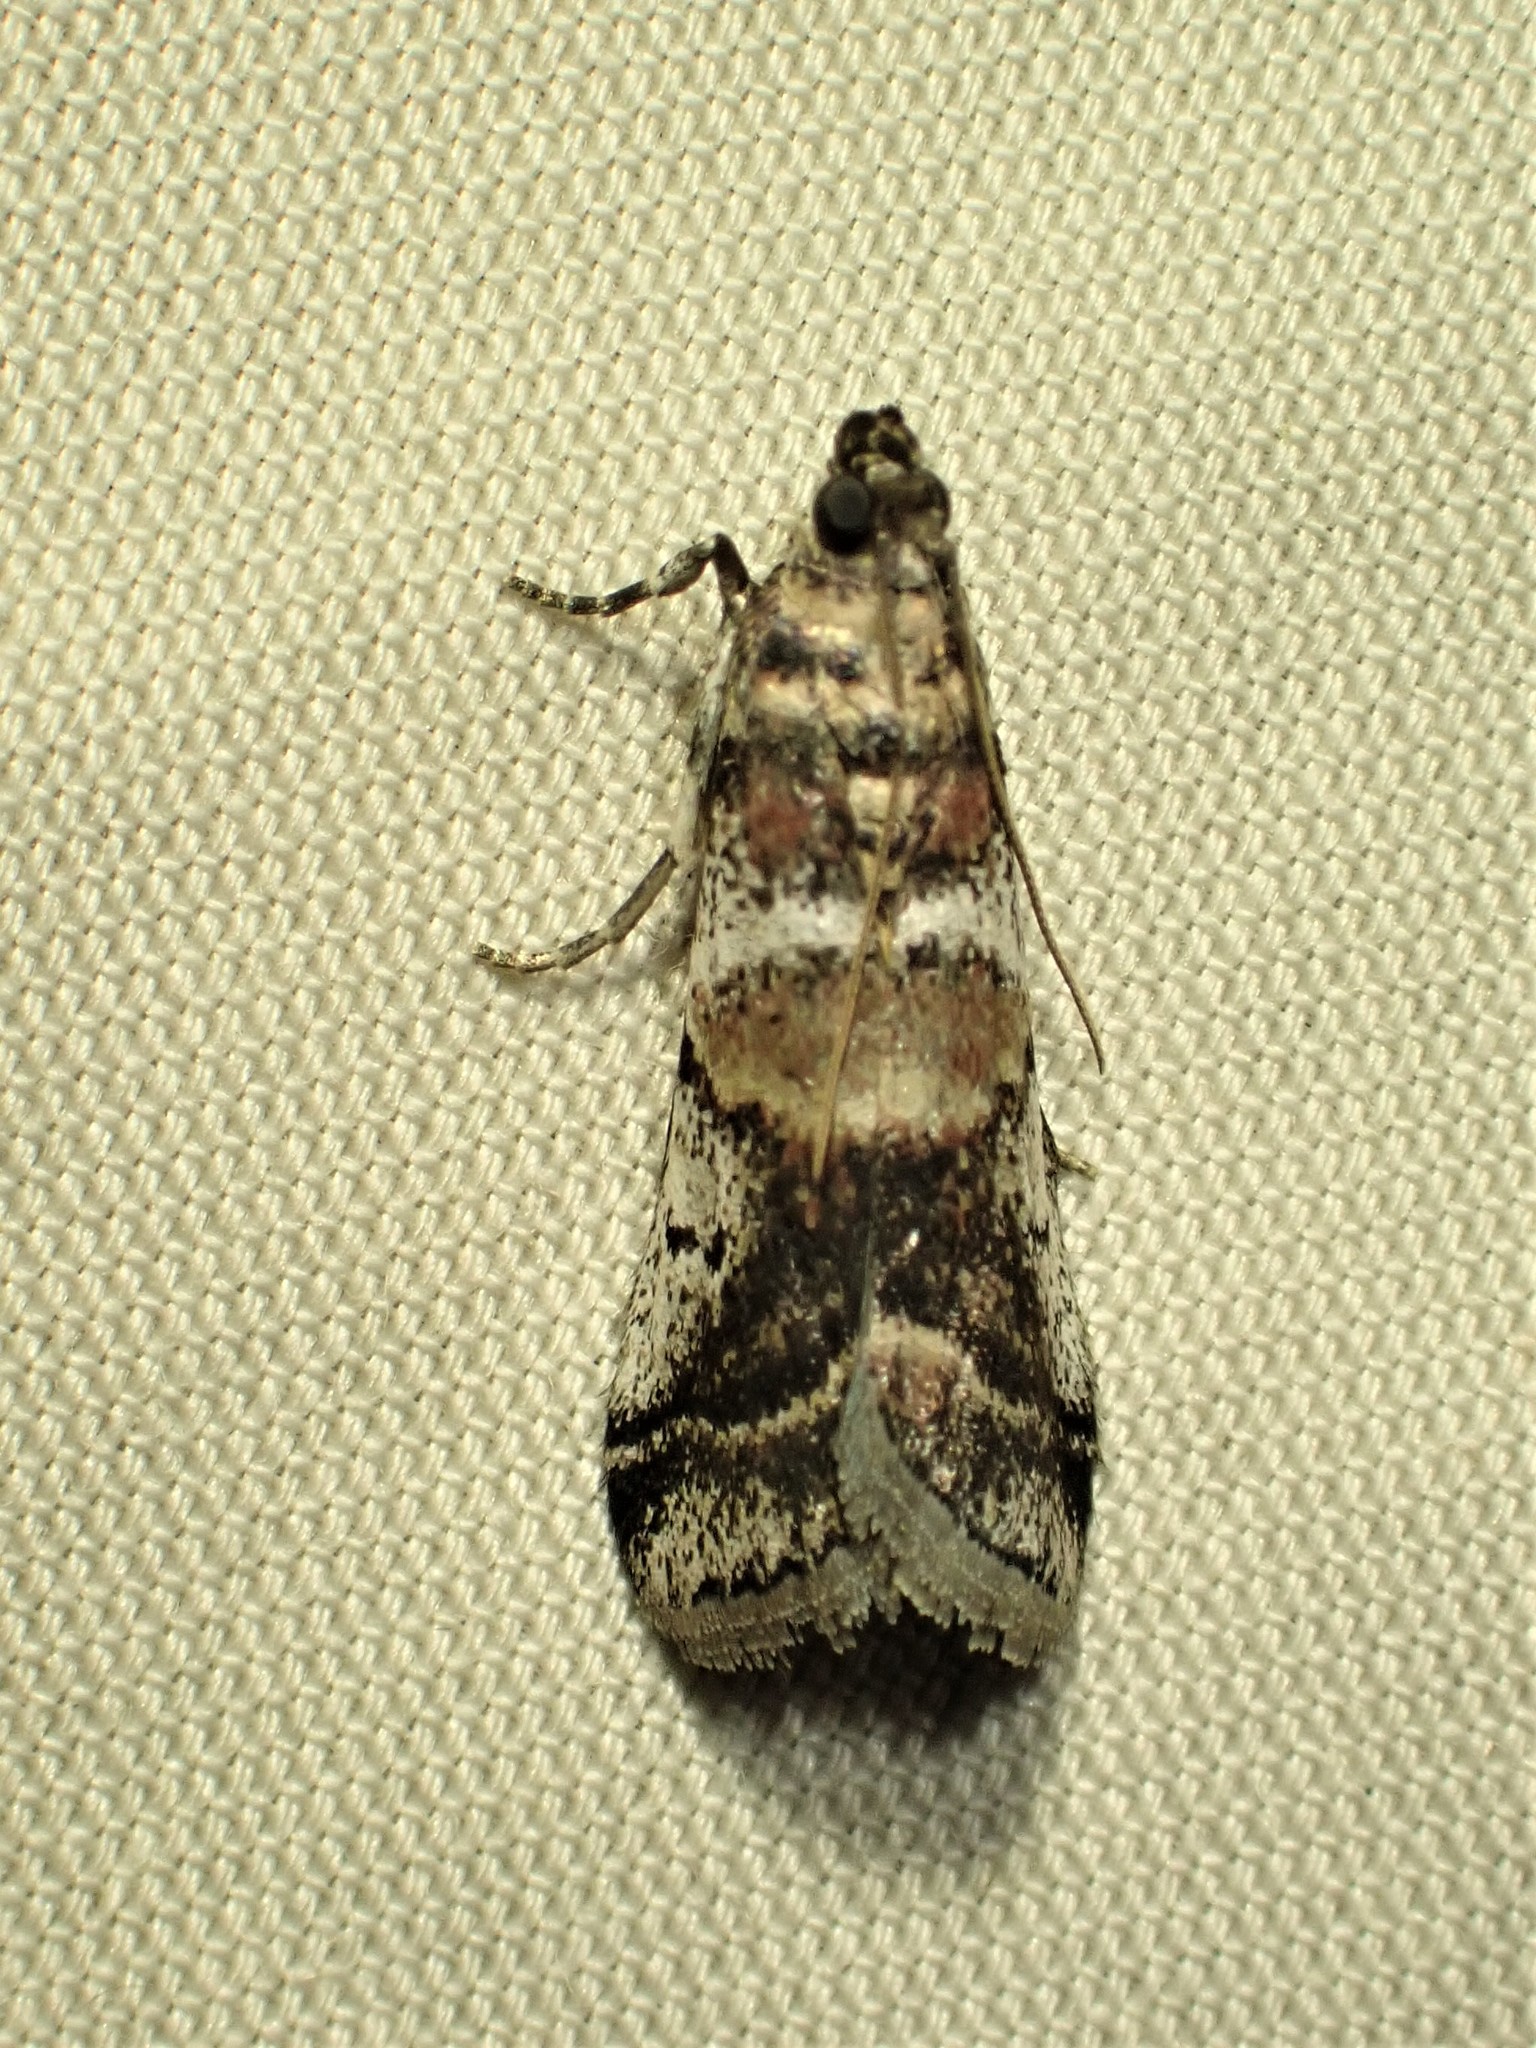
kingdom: Animalia
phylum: Arthropoda
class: Insecta
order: Lepidoptera
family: Pyralidae
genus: Acrobasis
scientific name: Acrobasis indigenella
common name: Leaf crumpler moth
